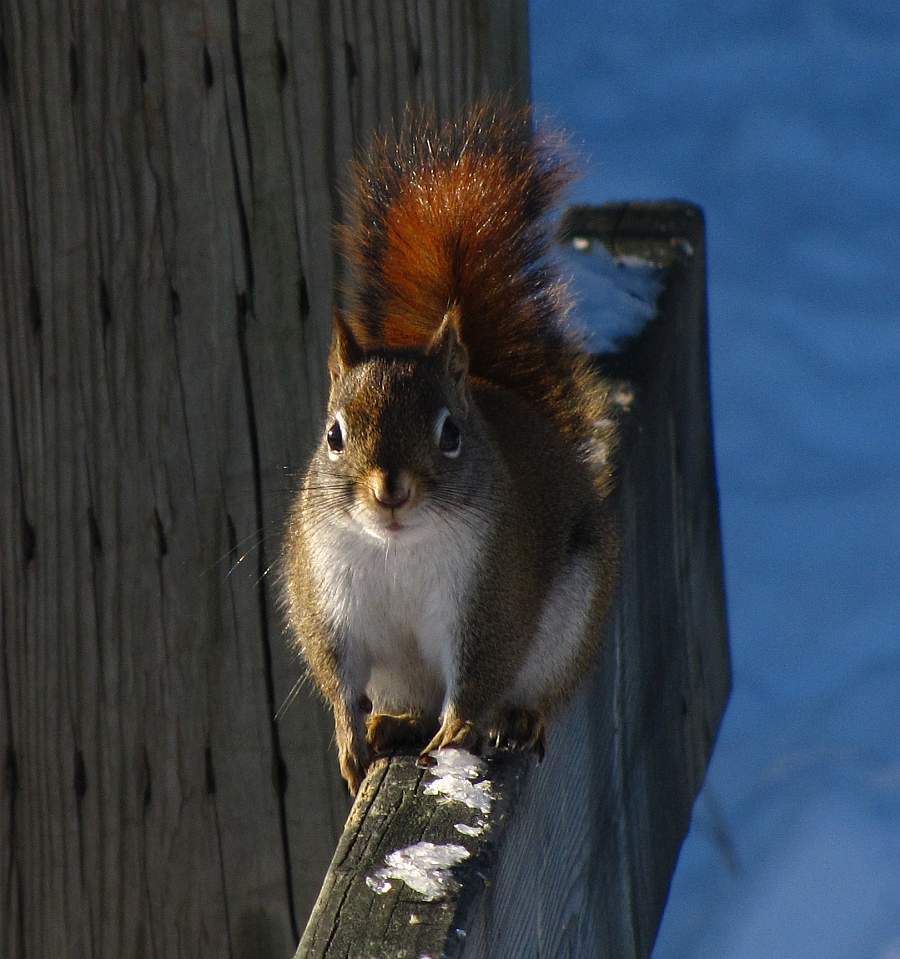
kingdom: Animalia
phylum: Chordata
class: Mammalia
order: Rodentia
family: Sciuridae
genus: Tamiasciurus
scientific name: Tamiasciurus hudsonicus
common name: Red squirrel
